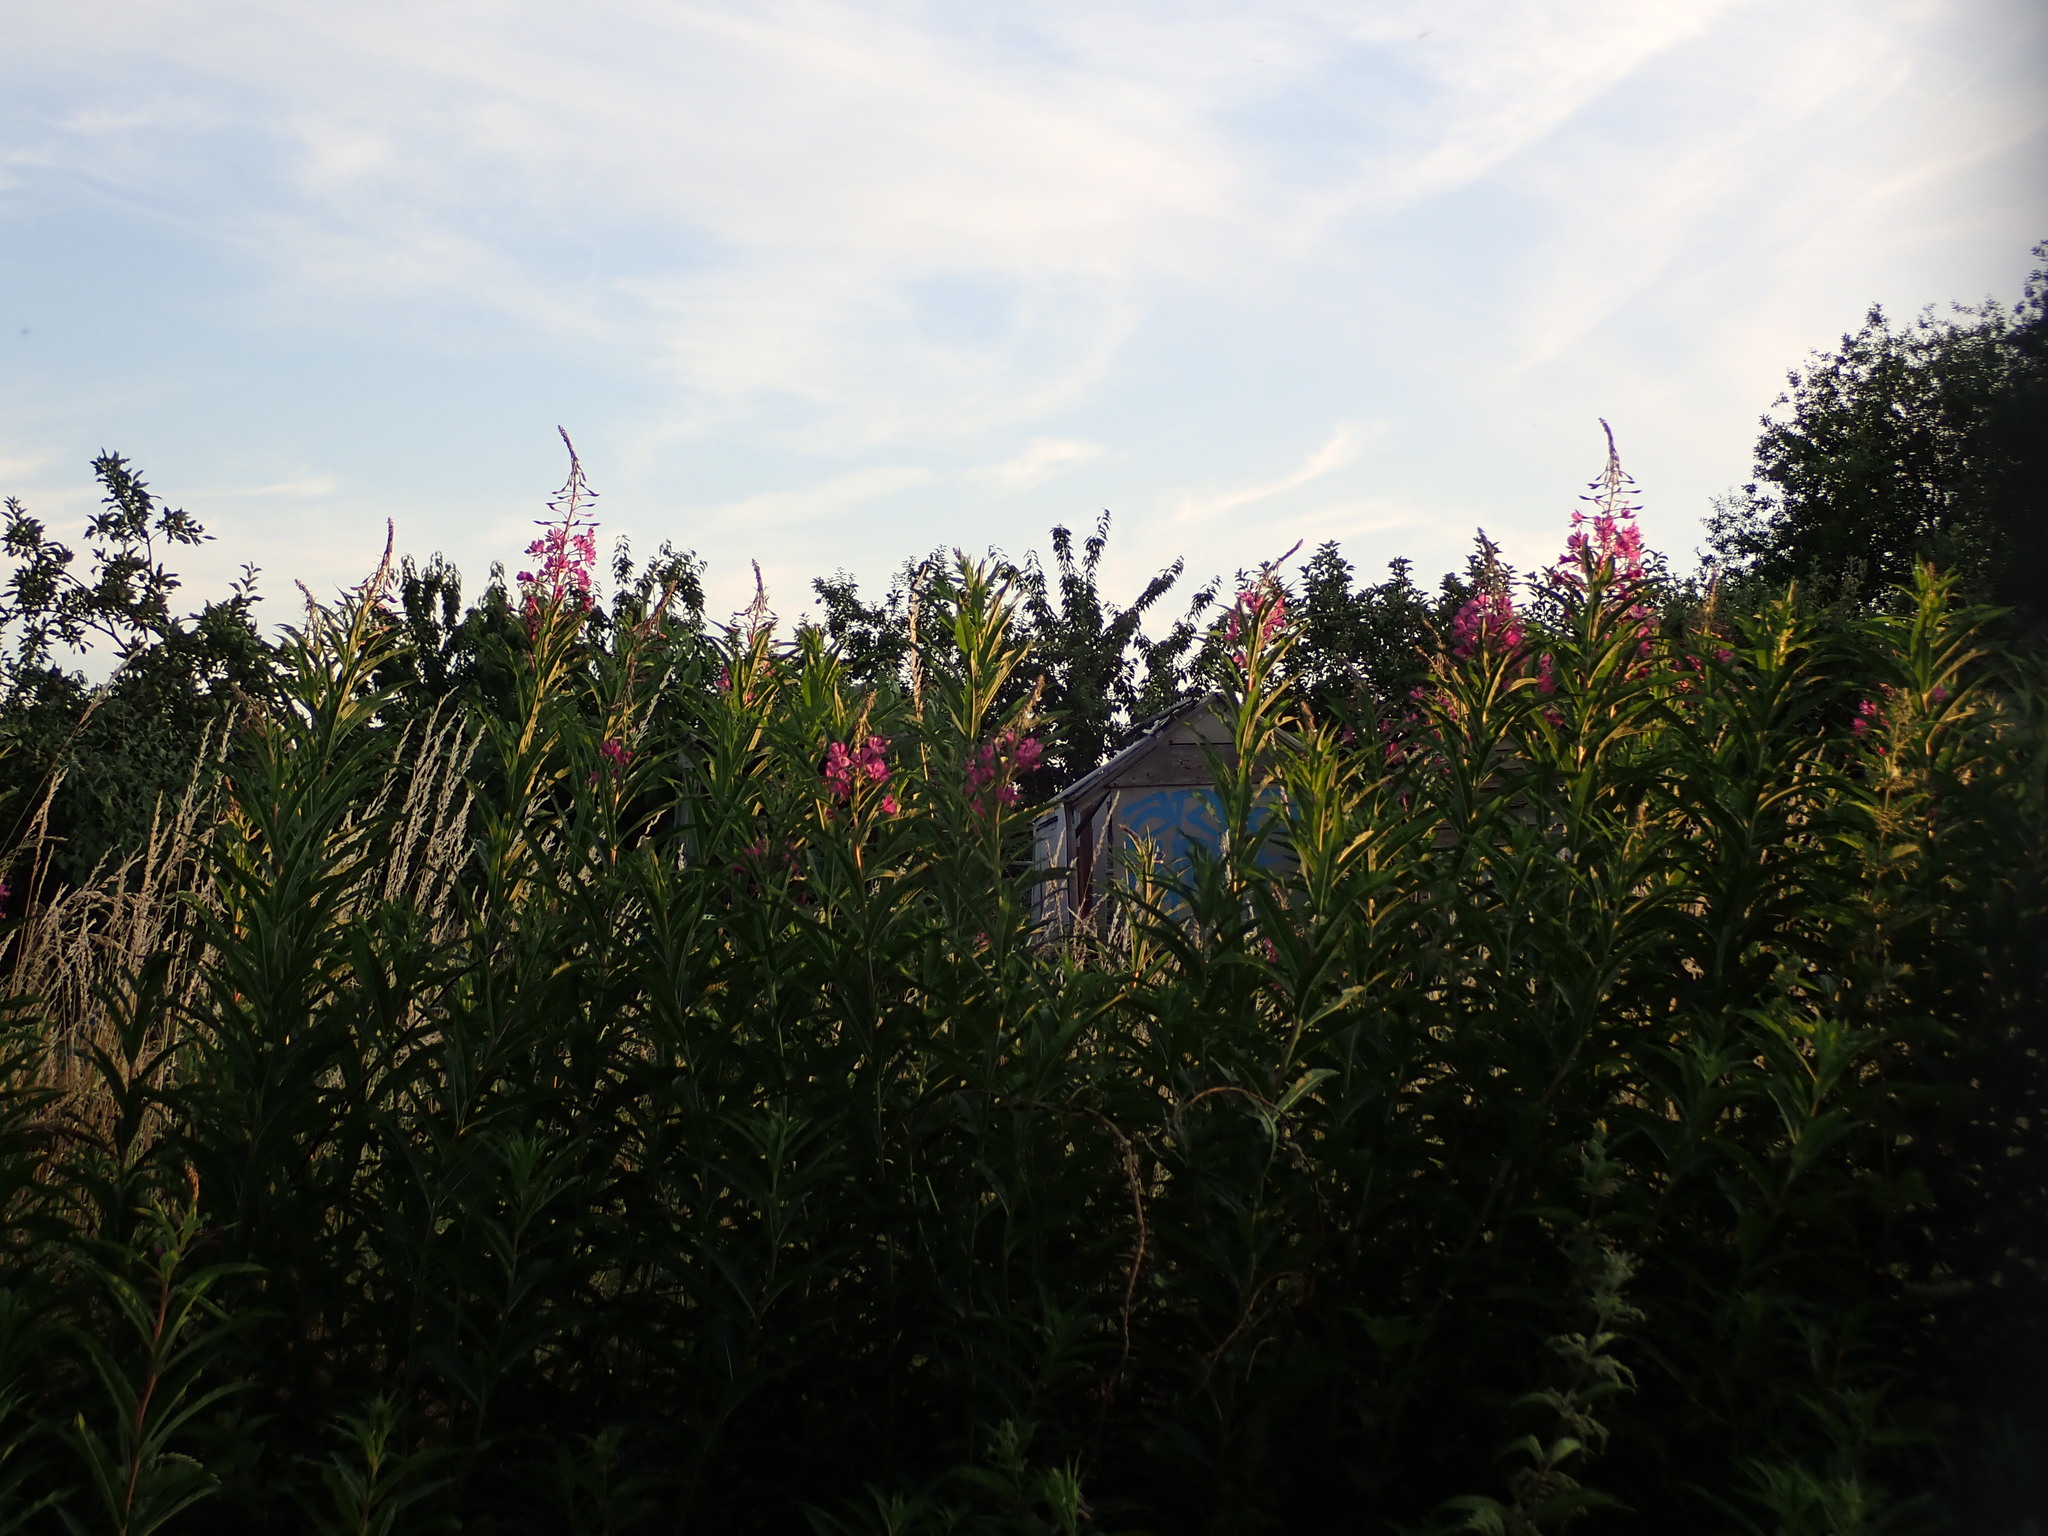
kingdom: Plantae
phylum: Tracheophyta
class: Magnoliopsida
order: Myrtales
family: Onagraceae
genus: Chamaenerion
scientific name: Chamaenerion angustifolium
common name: Fireweed
